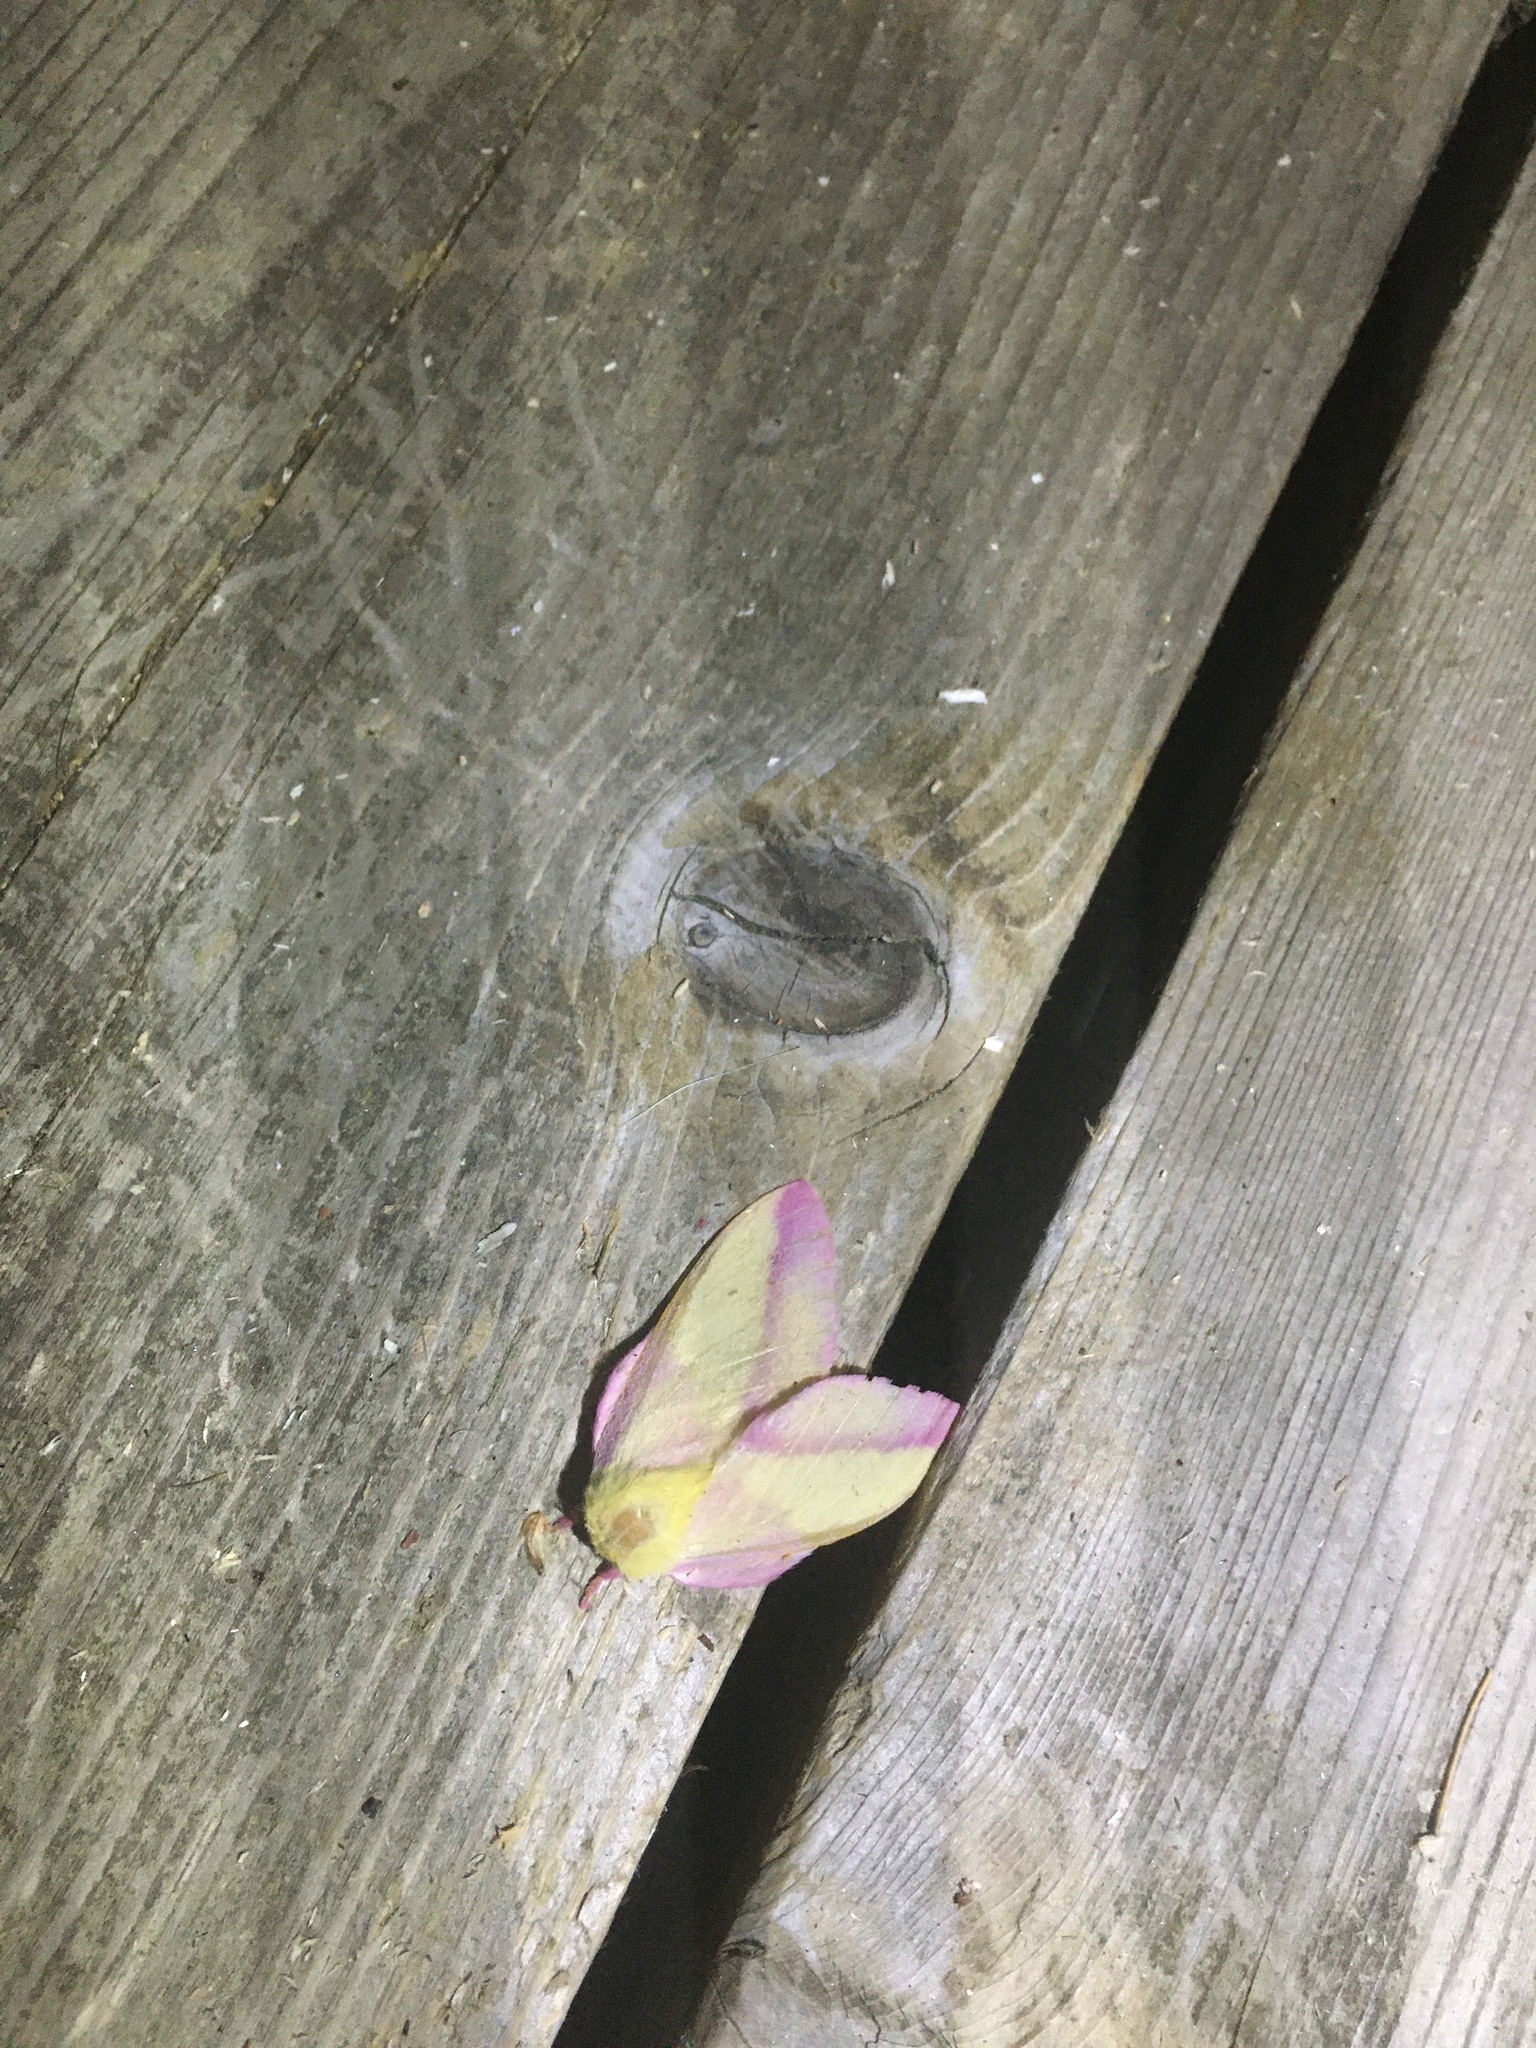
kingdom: Animalia
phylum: Arthropoda
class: Insecta
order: Lepidoptera
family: Saturniidae
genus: Dryocampa
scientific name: Dryocampa rubicunda
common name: Rosy maple moth
